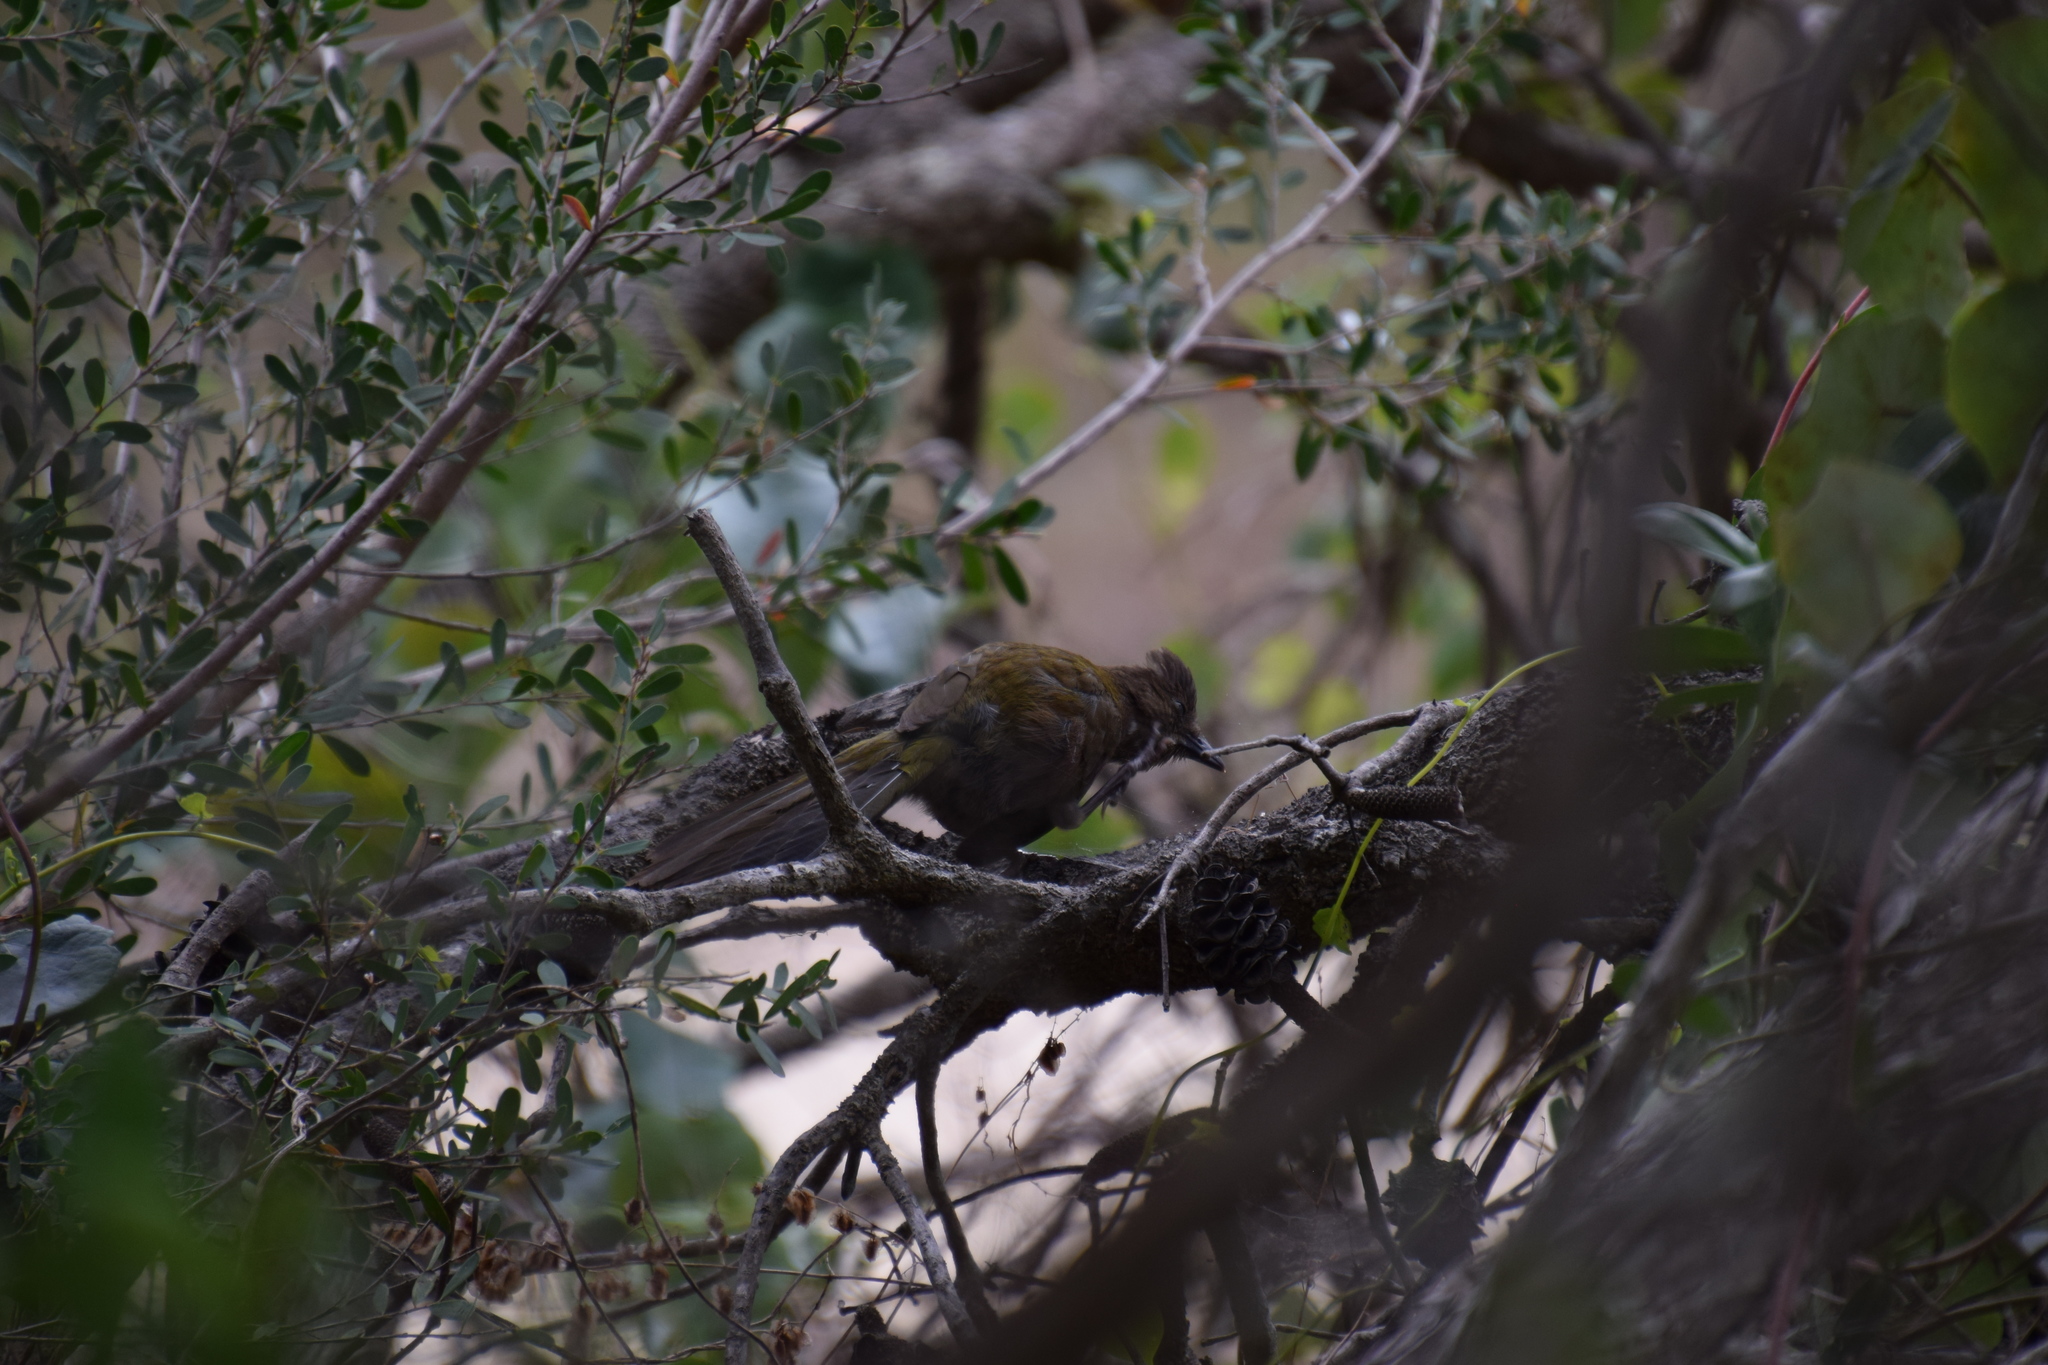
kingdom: Animalia
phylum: Chordata
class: Aves
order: Passeriformes
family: Psophodidae
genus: Psophodes
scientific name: Psophodes olivaceus
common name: Eastern whipbird
